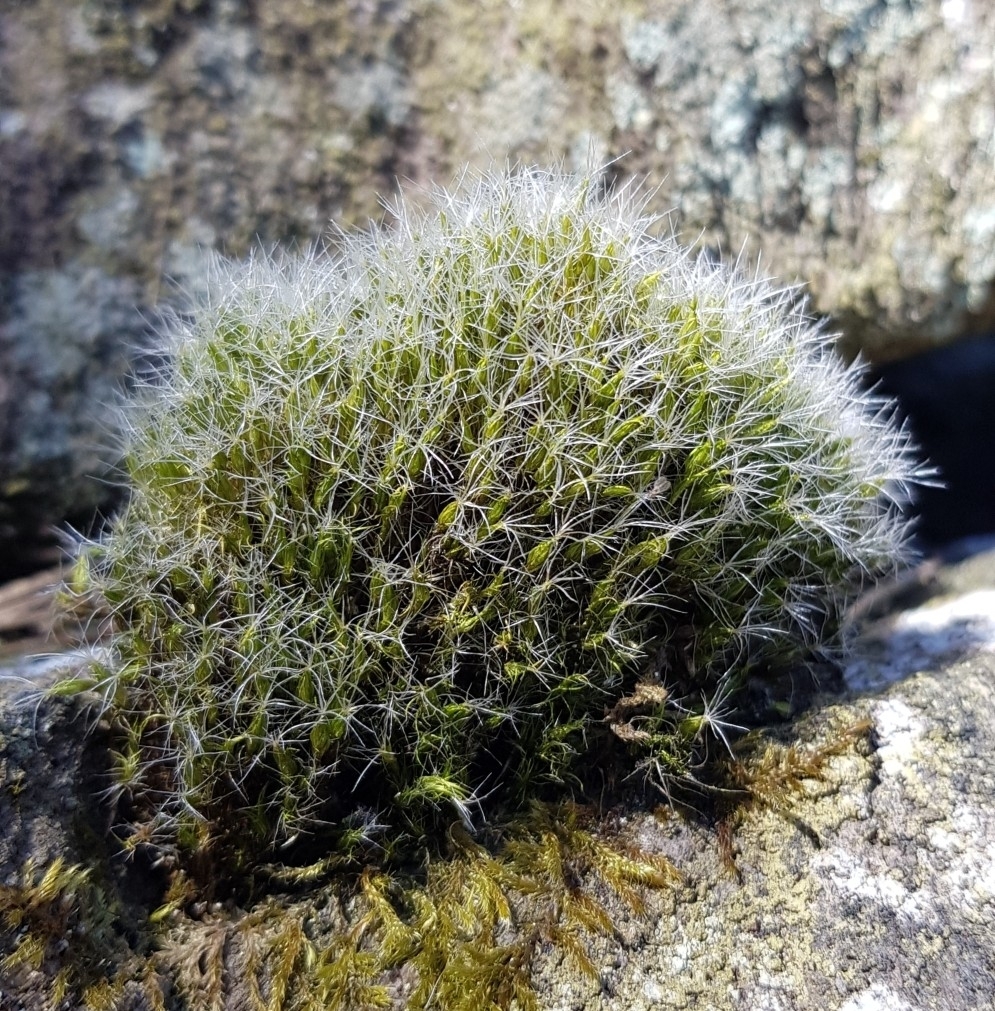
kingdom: Plantae
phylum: Bryophyta
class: Bryopsida
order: Dicranales
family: Leucobryaceae
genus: Campylopus
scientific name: Campylopus introflexus
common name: Heath star moss
